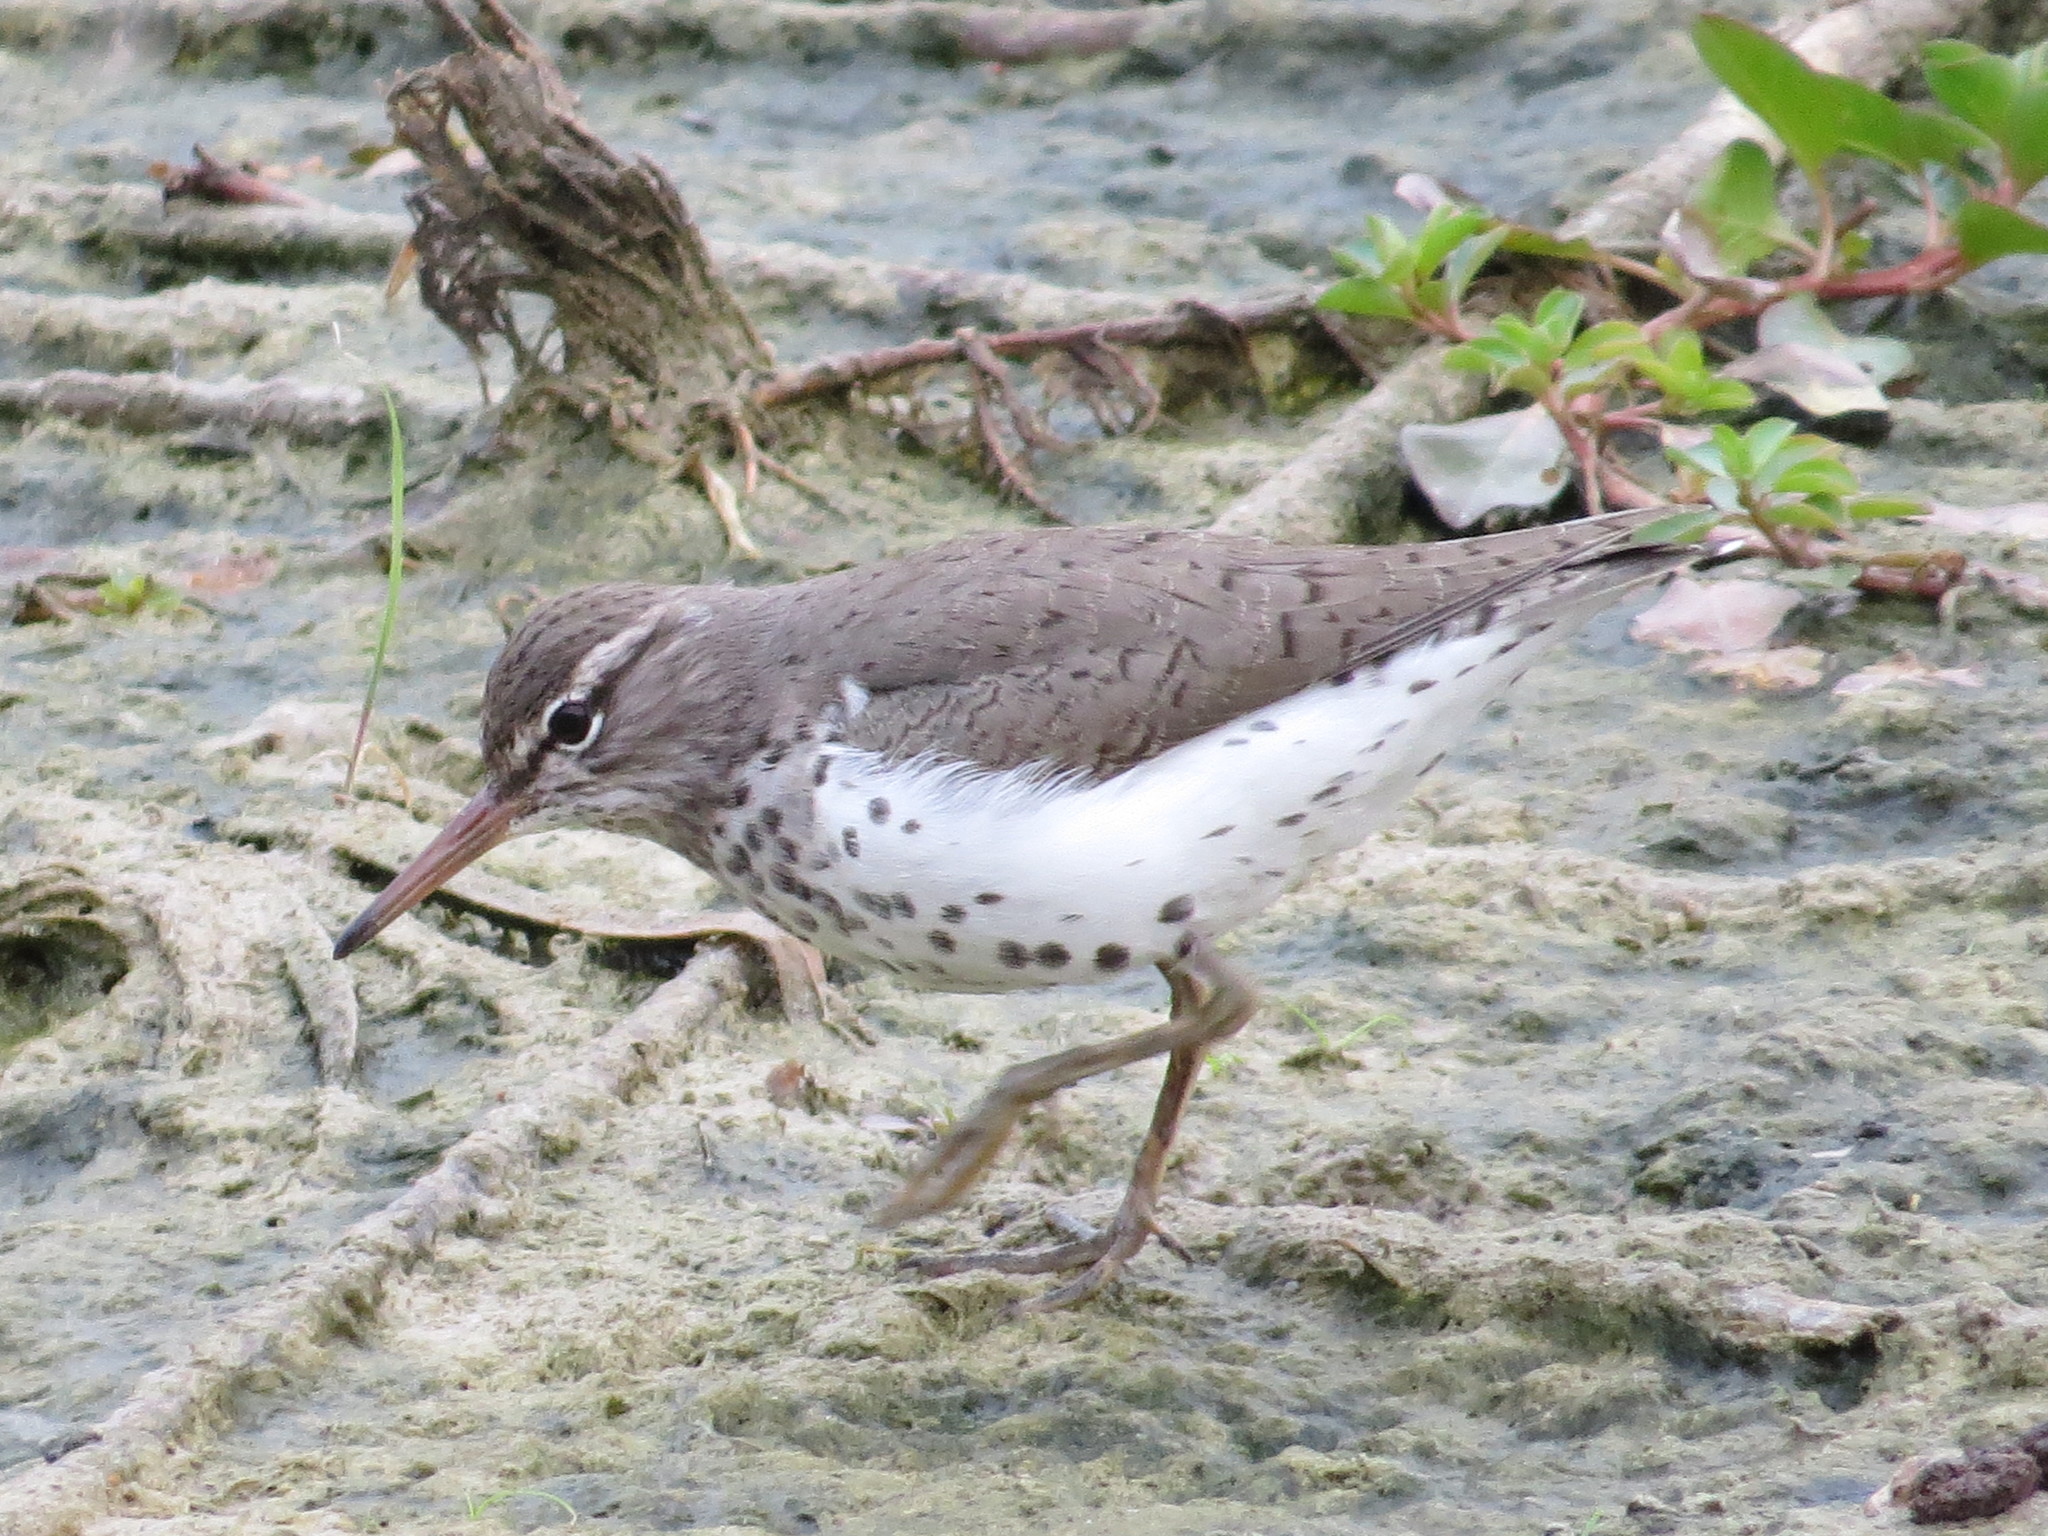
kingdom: Animalia
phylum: Chordata
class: Aves
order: Charadriiformes
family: Scolopacidae
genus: Actitis
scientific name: Actitis macularius
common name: Spotted sandpiper
